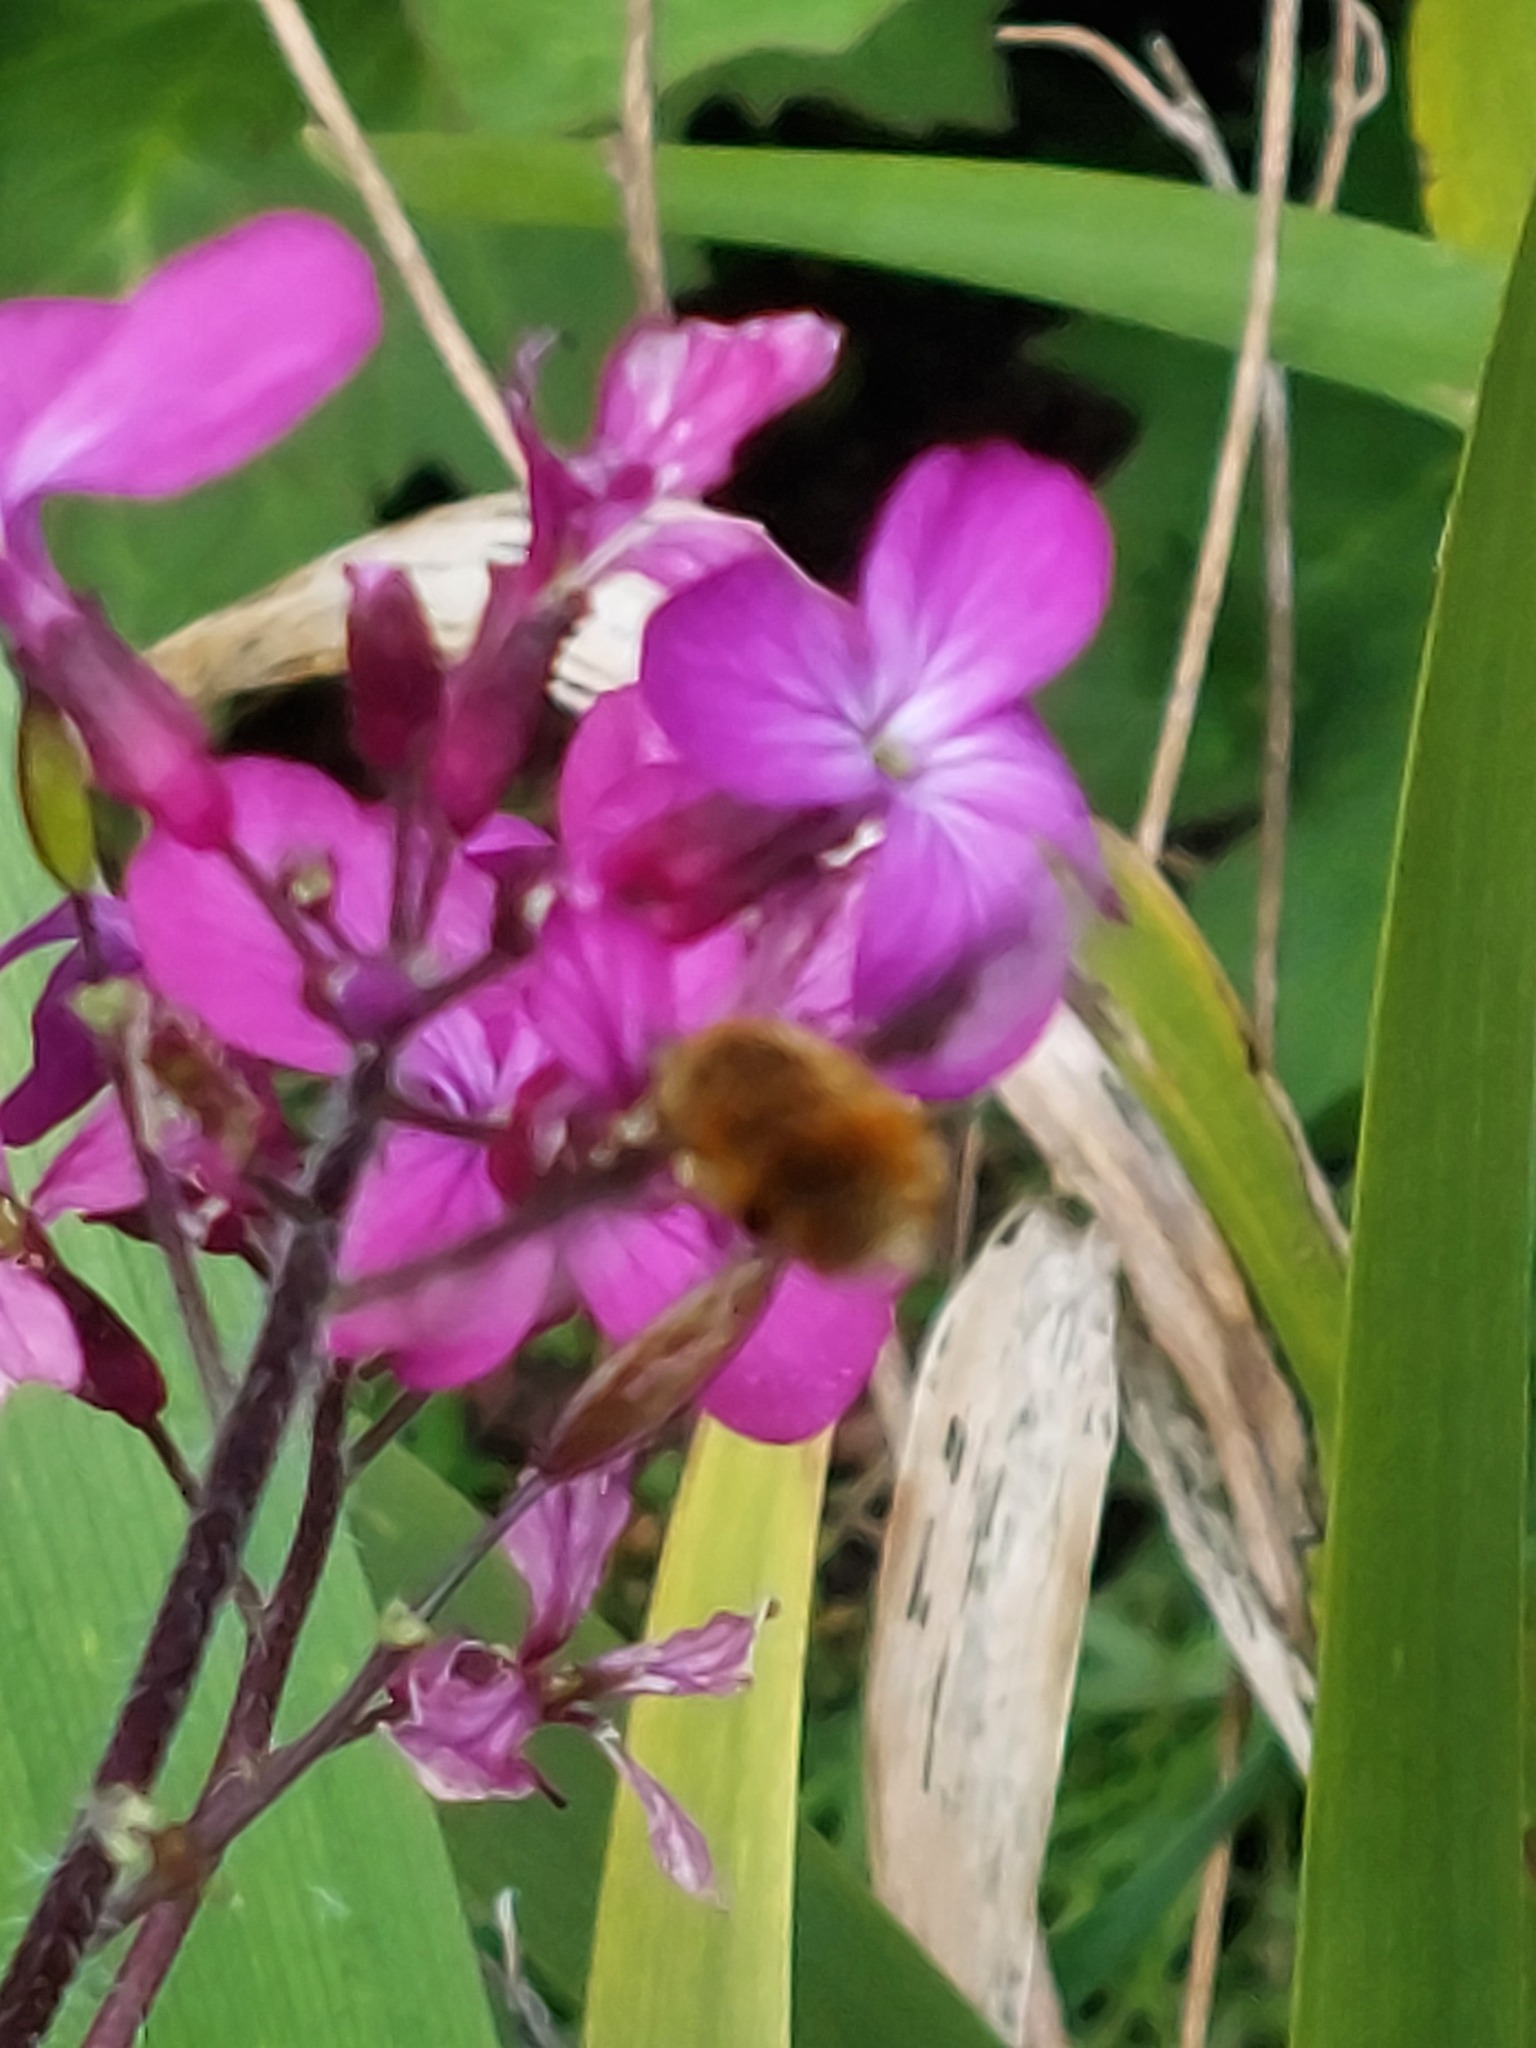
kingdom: Animalia
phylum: Arthropoda
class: Insecta
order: Diptera
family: Bombyliidae
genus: Bombylius
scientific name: Bombylius major
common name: Bee fly
